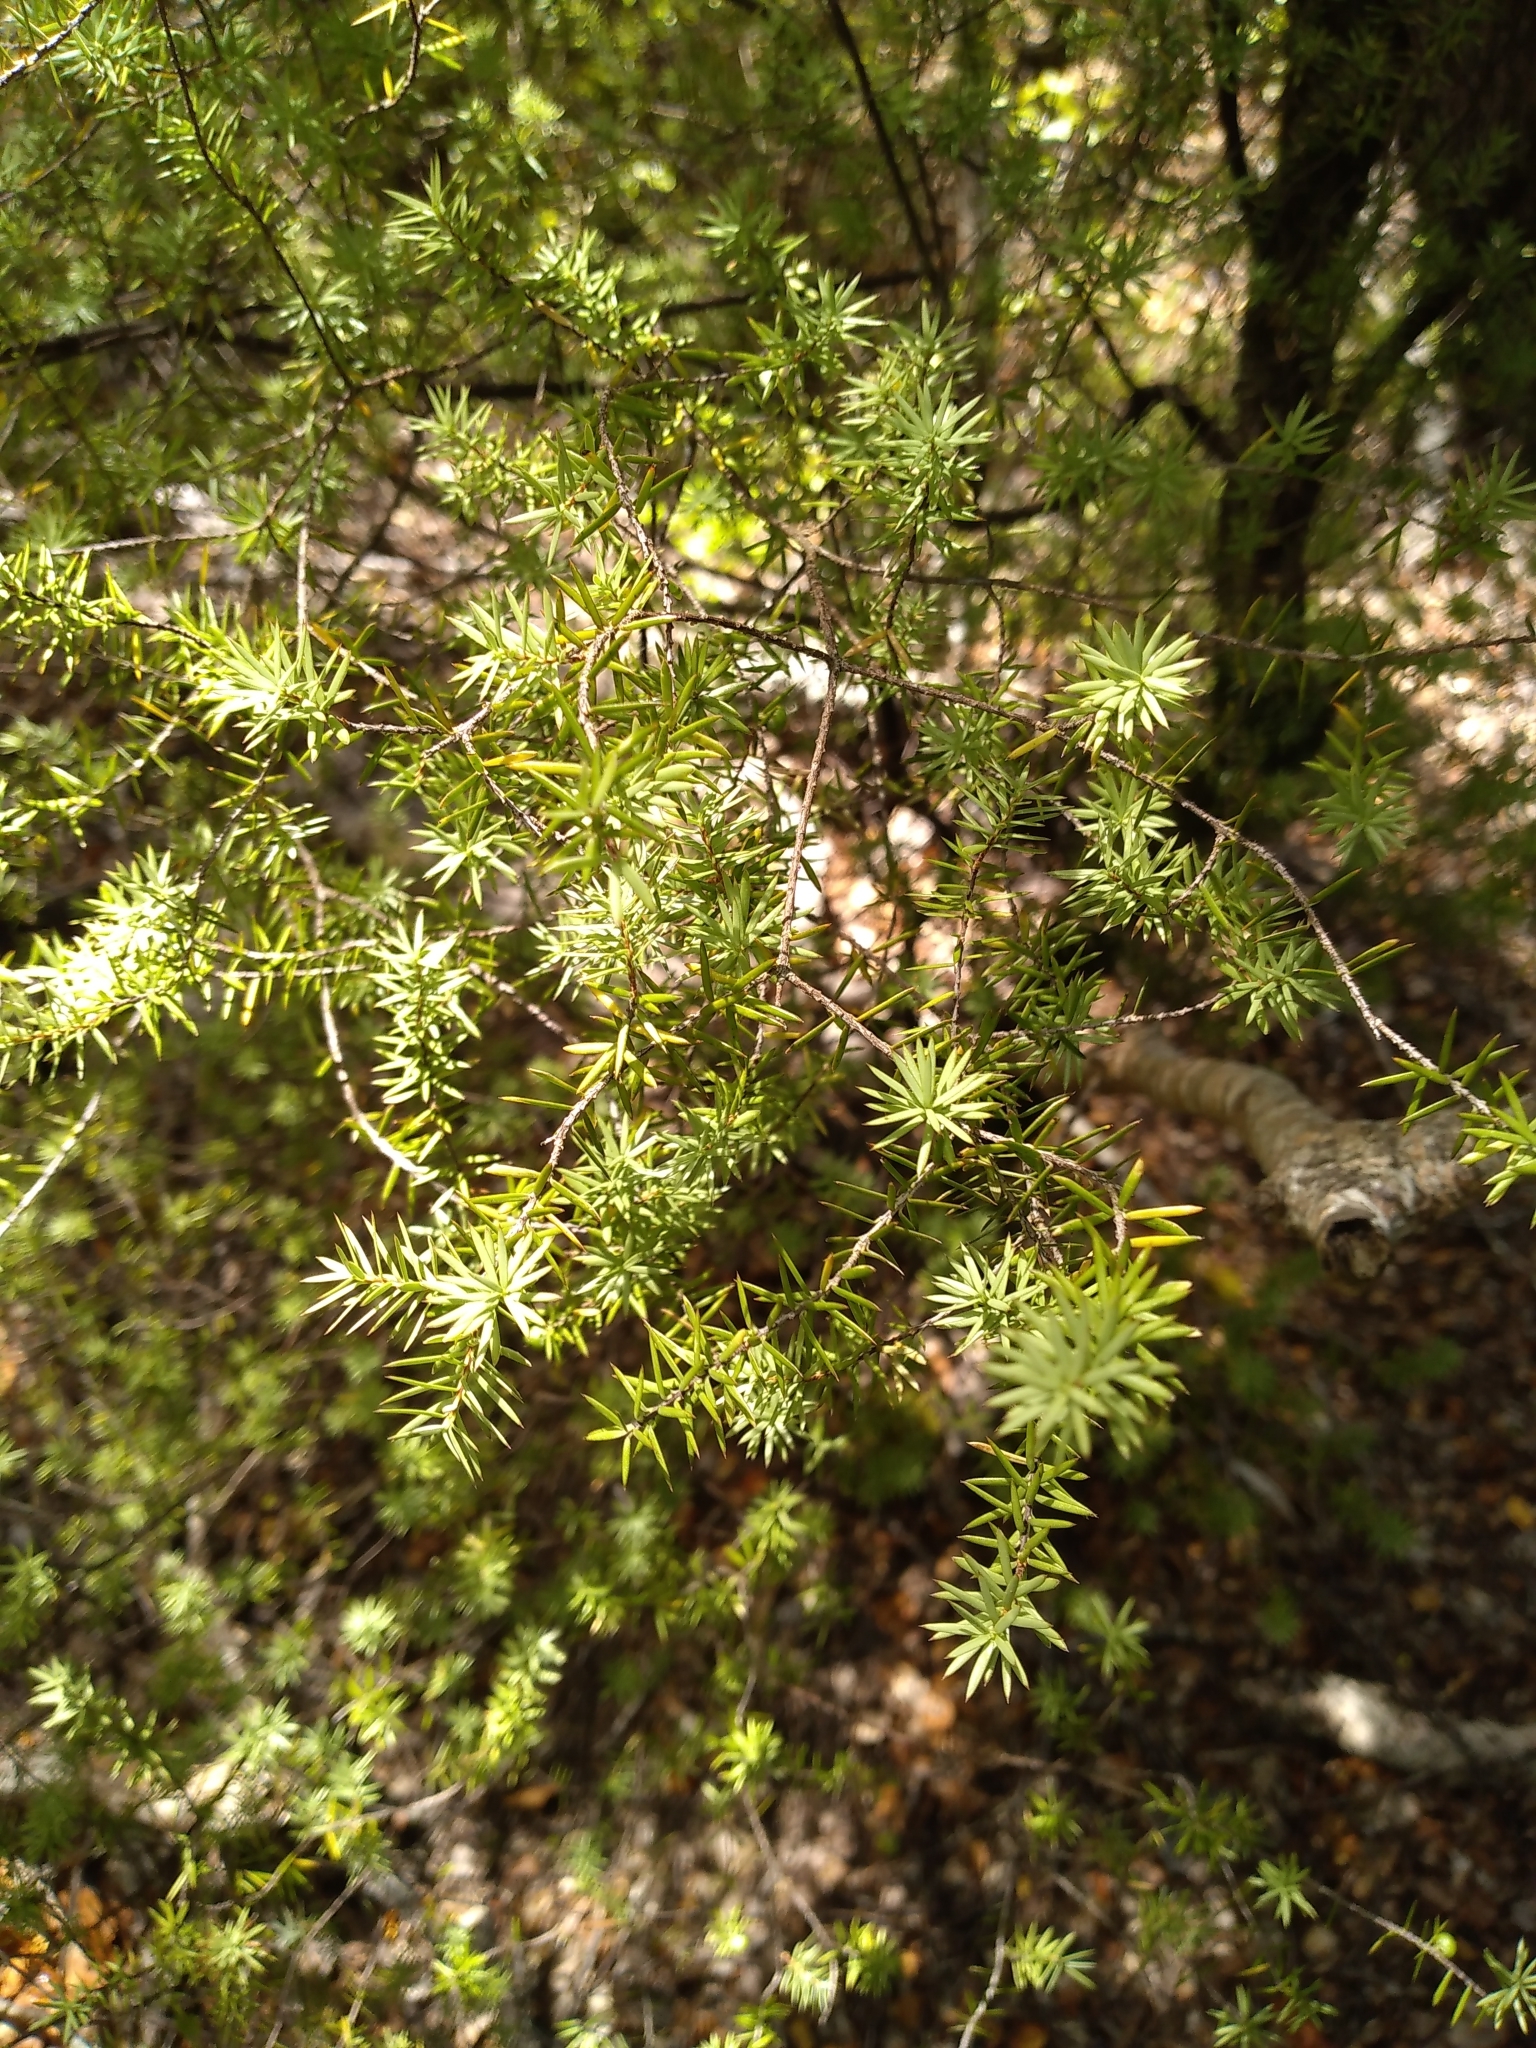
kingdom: Plantae
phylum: Tracheophyta
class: Magnoliopsida
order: Ericales
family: Ericaceae
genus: Leptecophylla
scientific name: Leptecophylla juniperina
